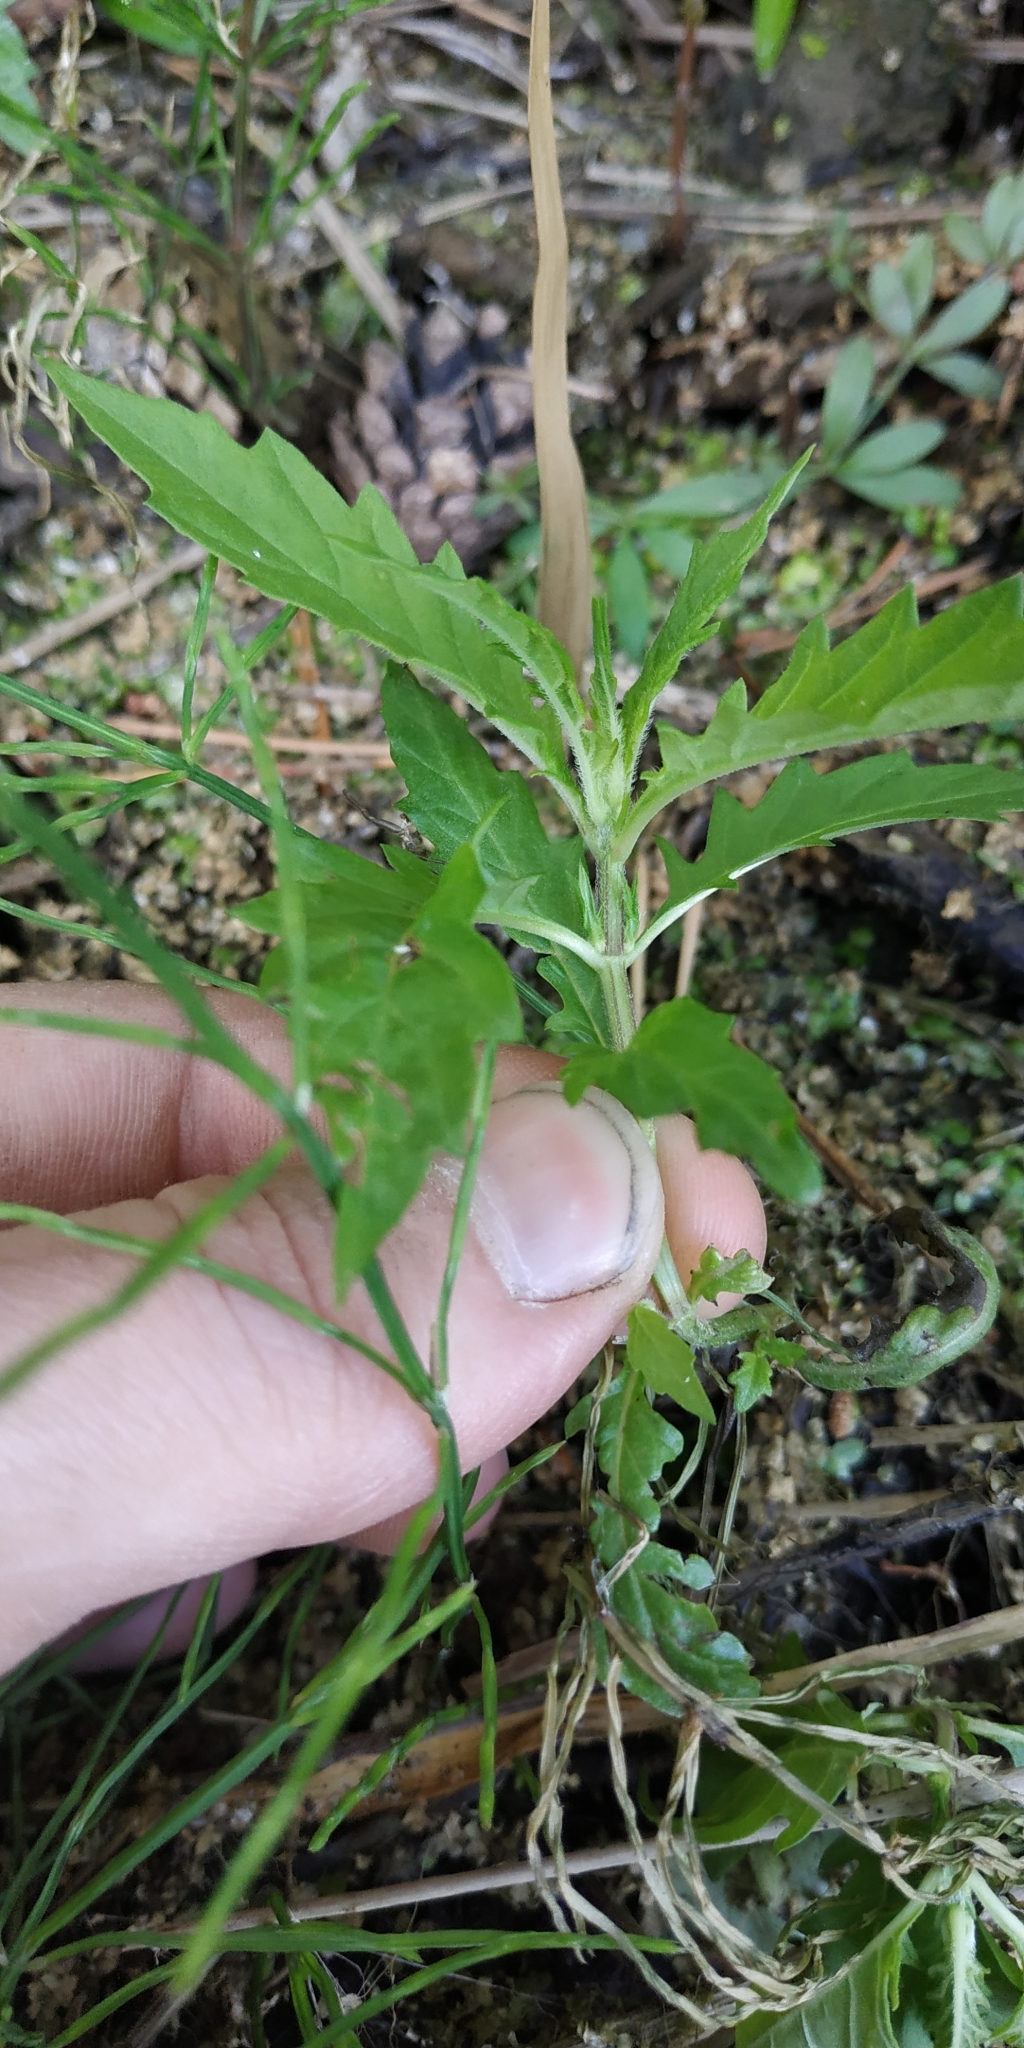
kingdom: Plantae
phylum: Tracheophyta
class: Magnoliopsida
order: Lamiales
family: Lamiaceae
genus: Lycopus
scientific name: Lycopus europaeus
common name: European bugleweed
